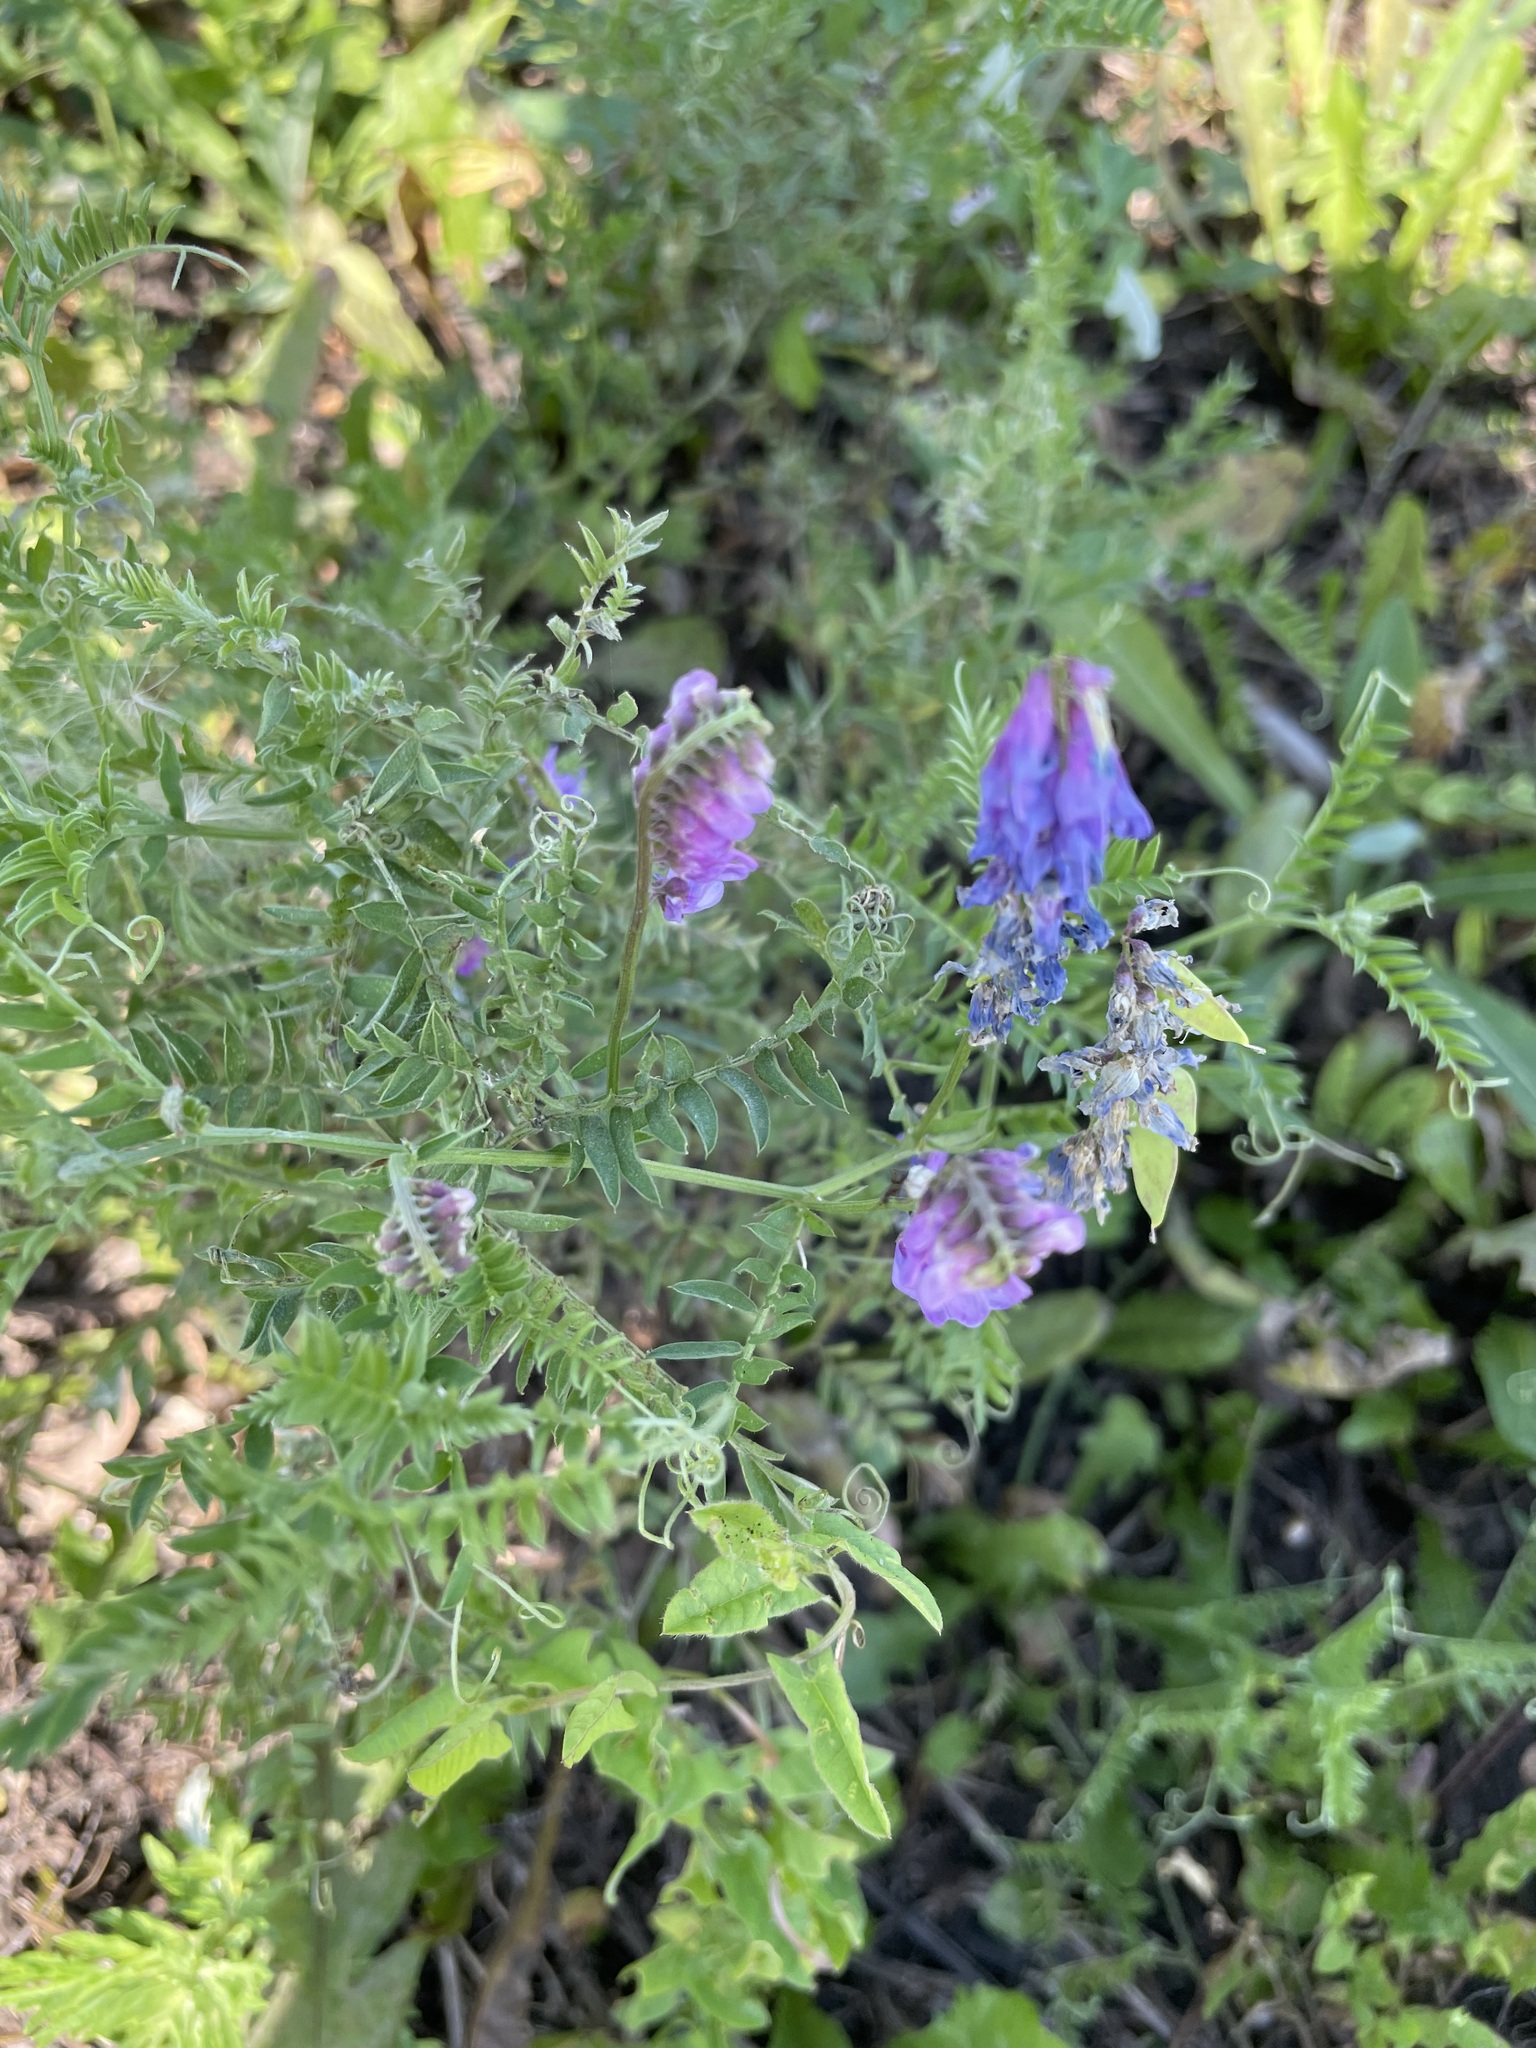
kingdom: Plantae
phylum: Tracheophyta
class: Magnoliopsida
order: Fabales
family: Fabaceae
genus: Vicia
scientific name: Vicia cracca
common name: Bird vetch
